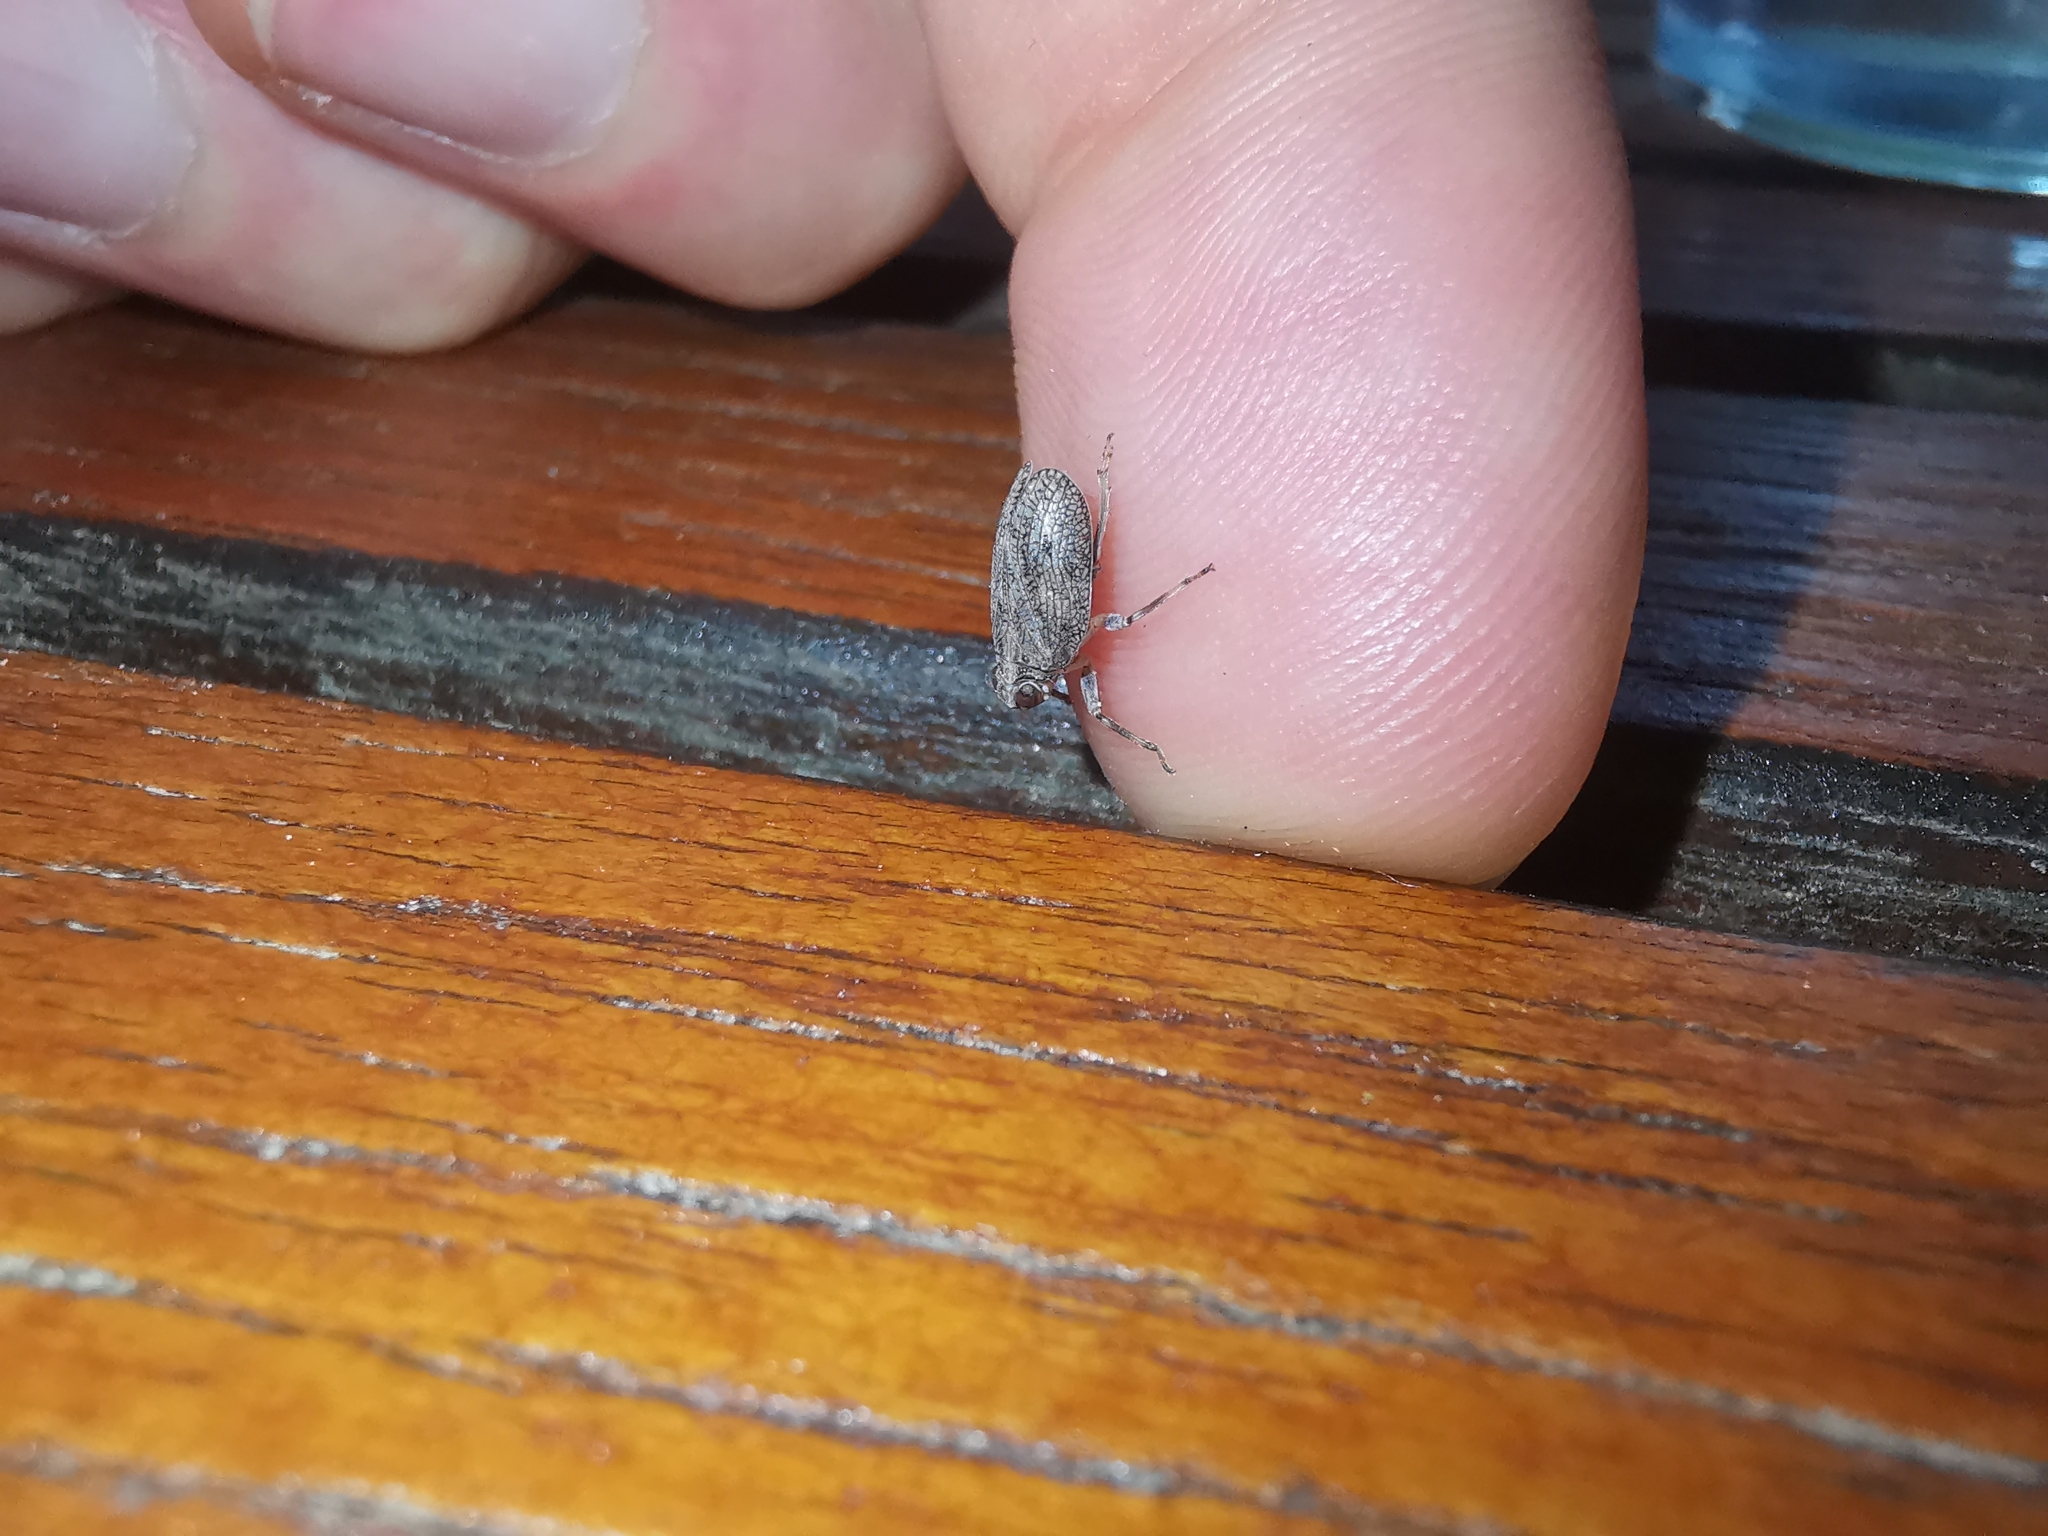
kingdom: Animalia
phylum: Arthropoda
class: Insecta
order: Hemiptera
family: Issidae
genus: Issus
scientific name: Issus coleoptratus
